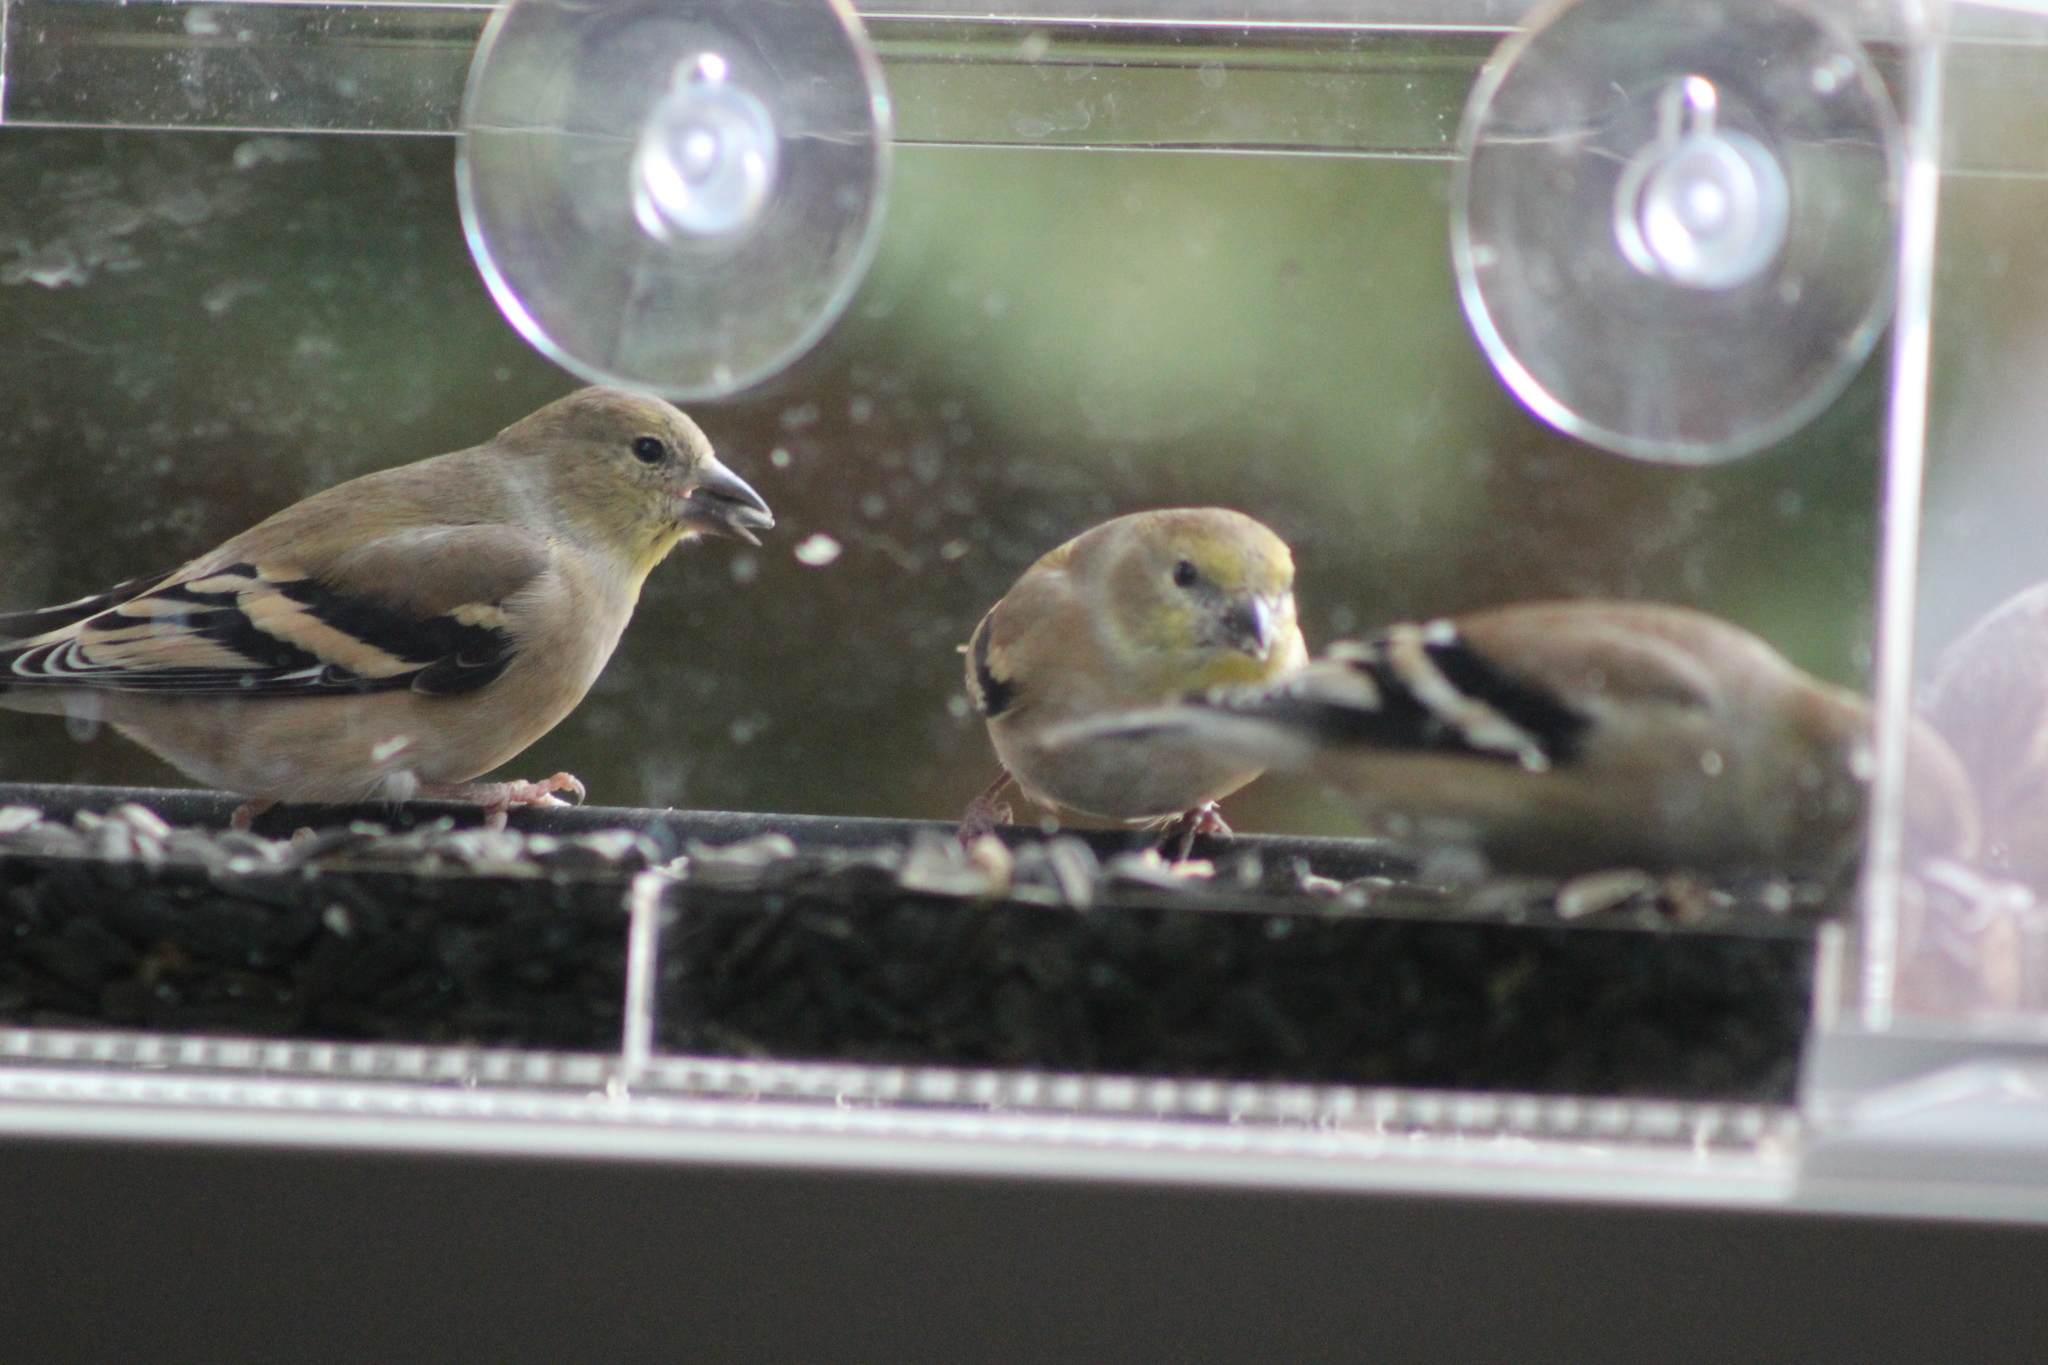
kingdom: Animalia
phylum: Chordata
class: Aves
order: Passeriformes
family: Fringillidae
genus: Spinus
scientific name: Spinus tristis
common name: American goldfinch
